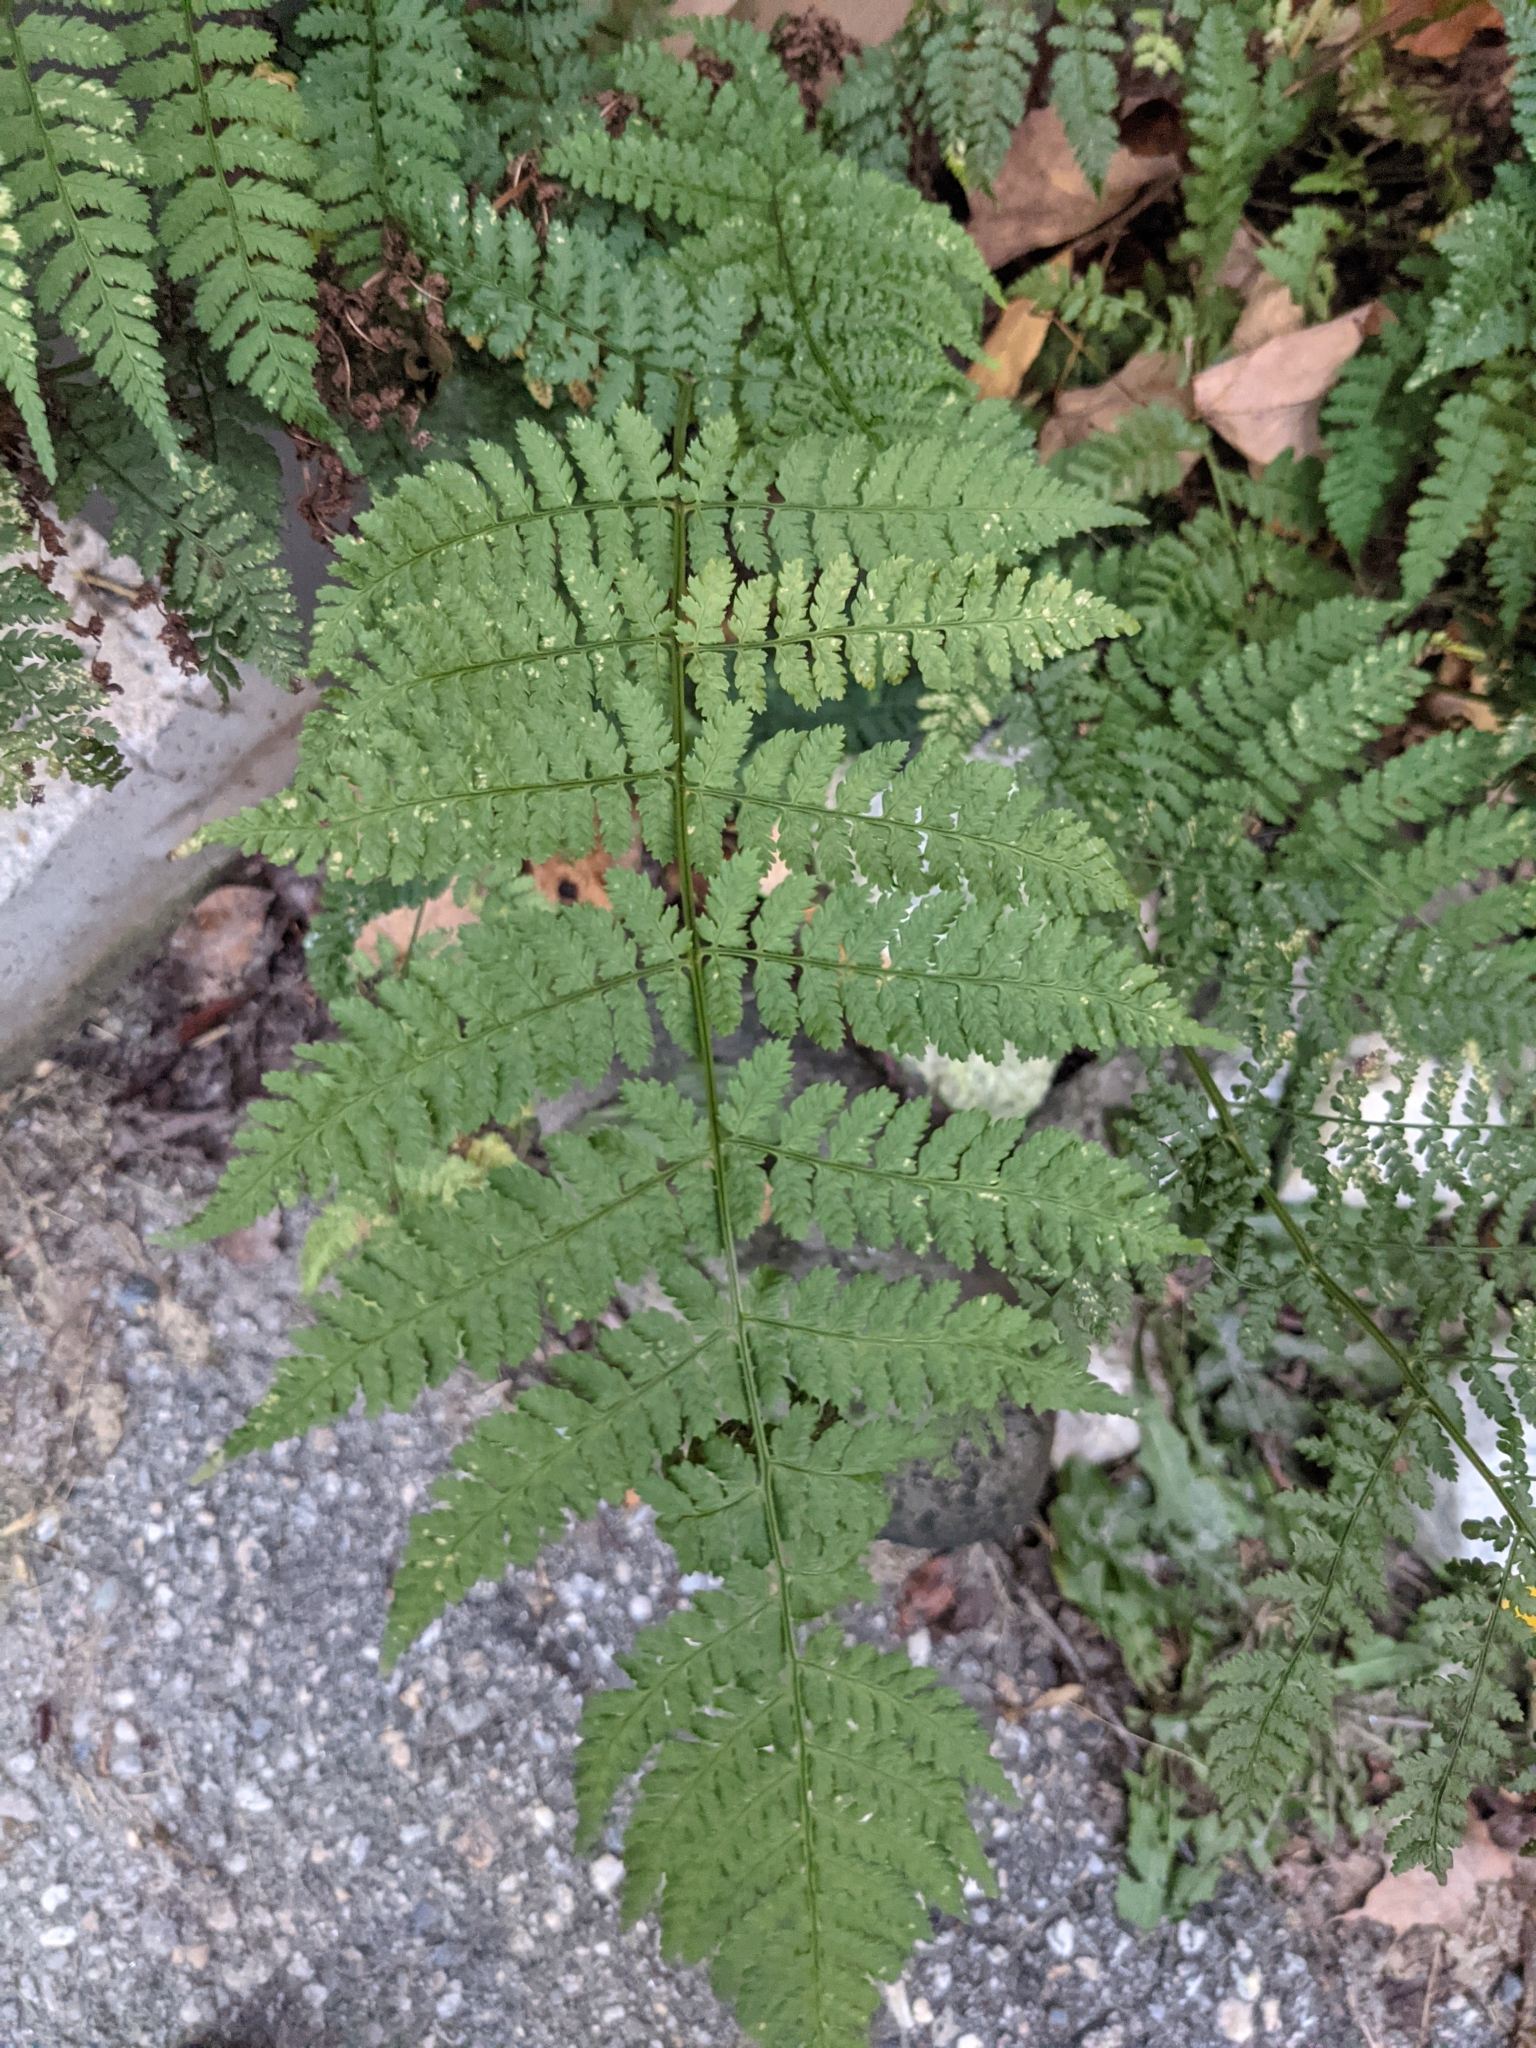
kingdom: Plantae
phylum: Tracheophyta
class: Polypodiopsida
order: Polypodiales
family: Dryopteridaceae
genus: Dryopteris
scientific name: Dryopteris intermedia
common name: Evergreen wood fern
